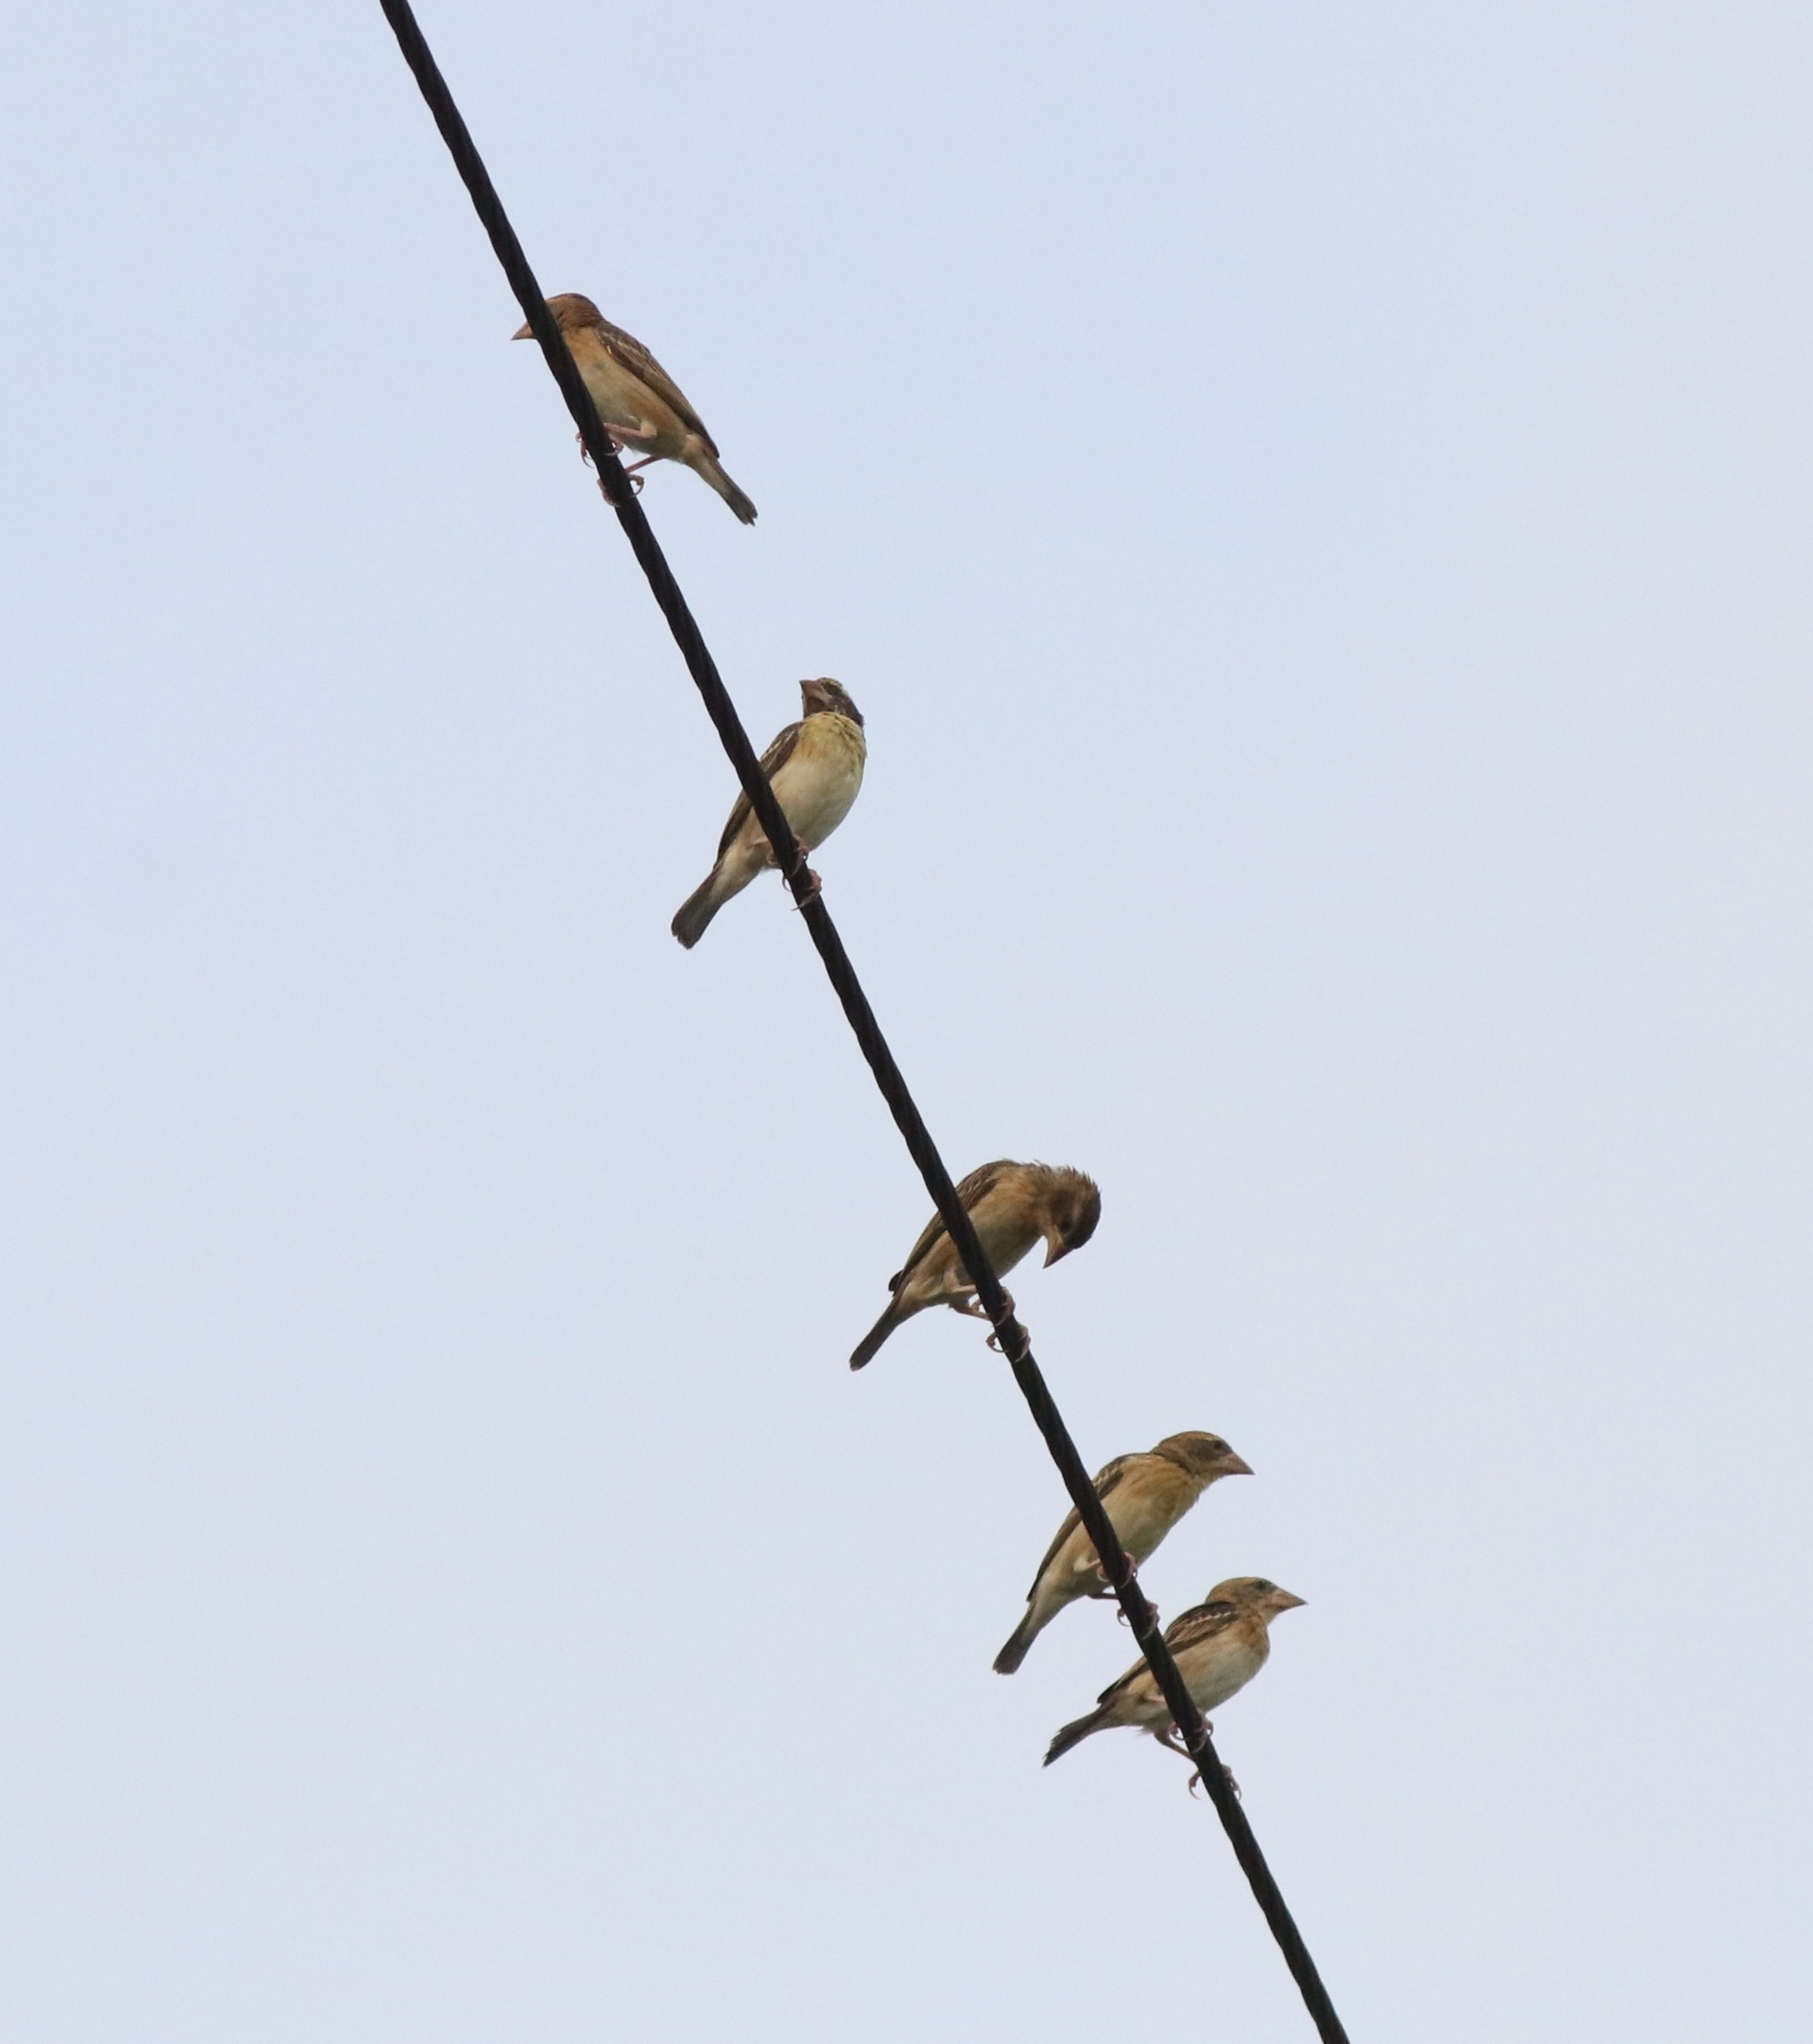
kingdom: Animalia
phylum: Chordata
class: Aves
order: Passeriformes
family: Ploceidae
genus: Ploceus
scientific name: Ploceus philippinus
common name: Baya weaver
